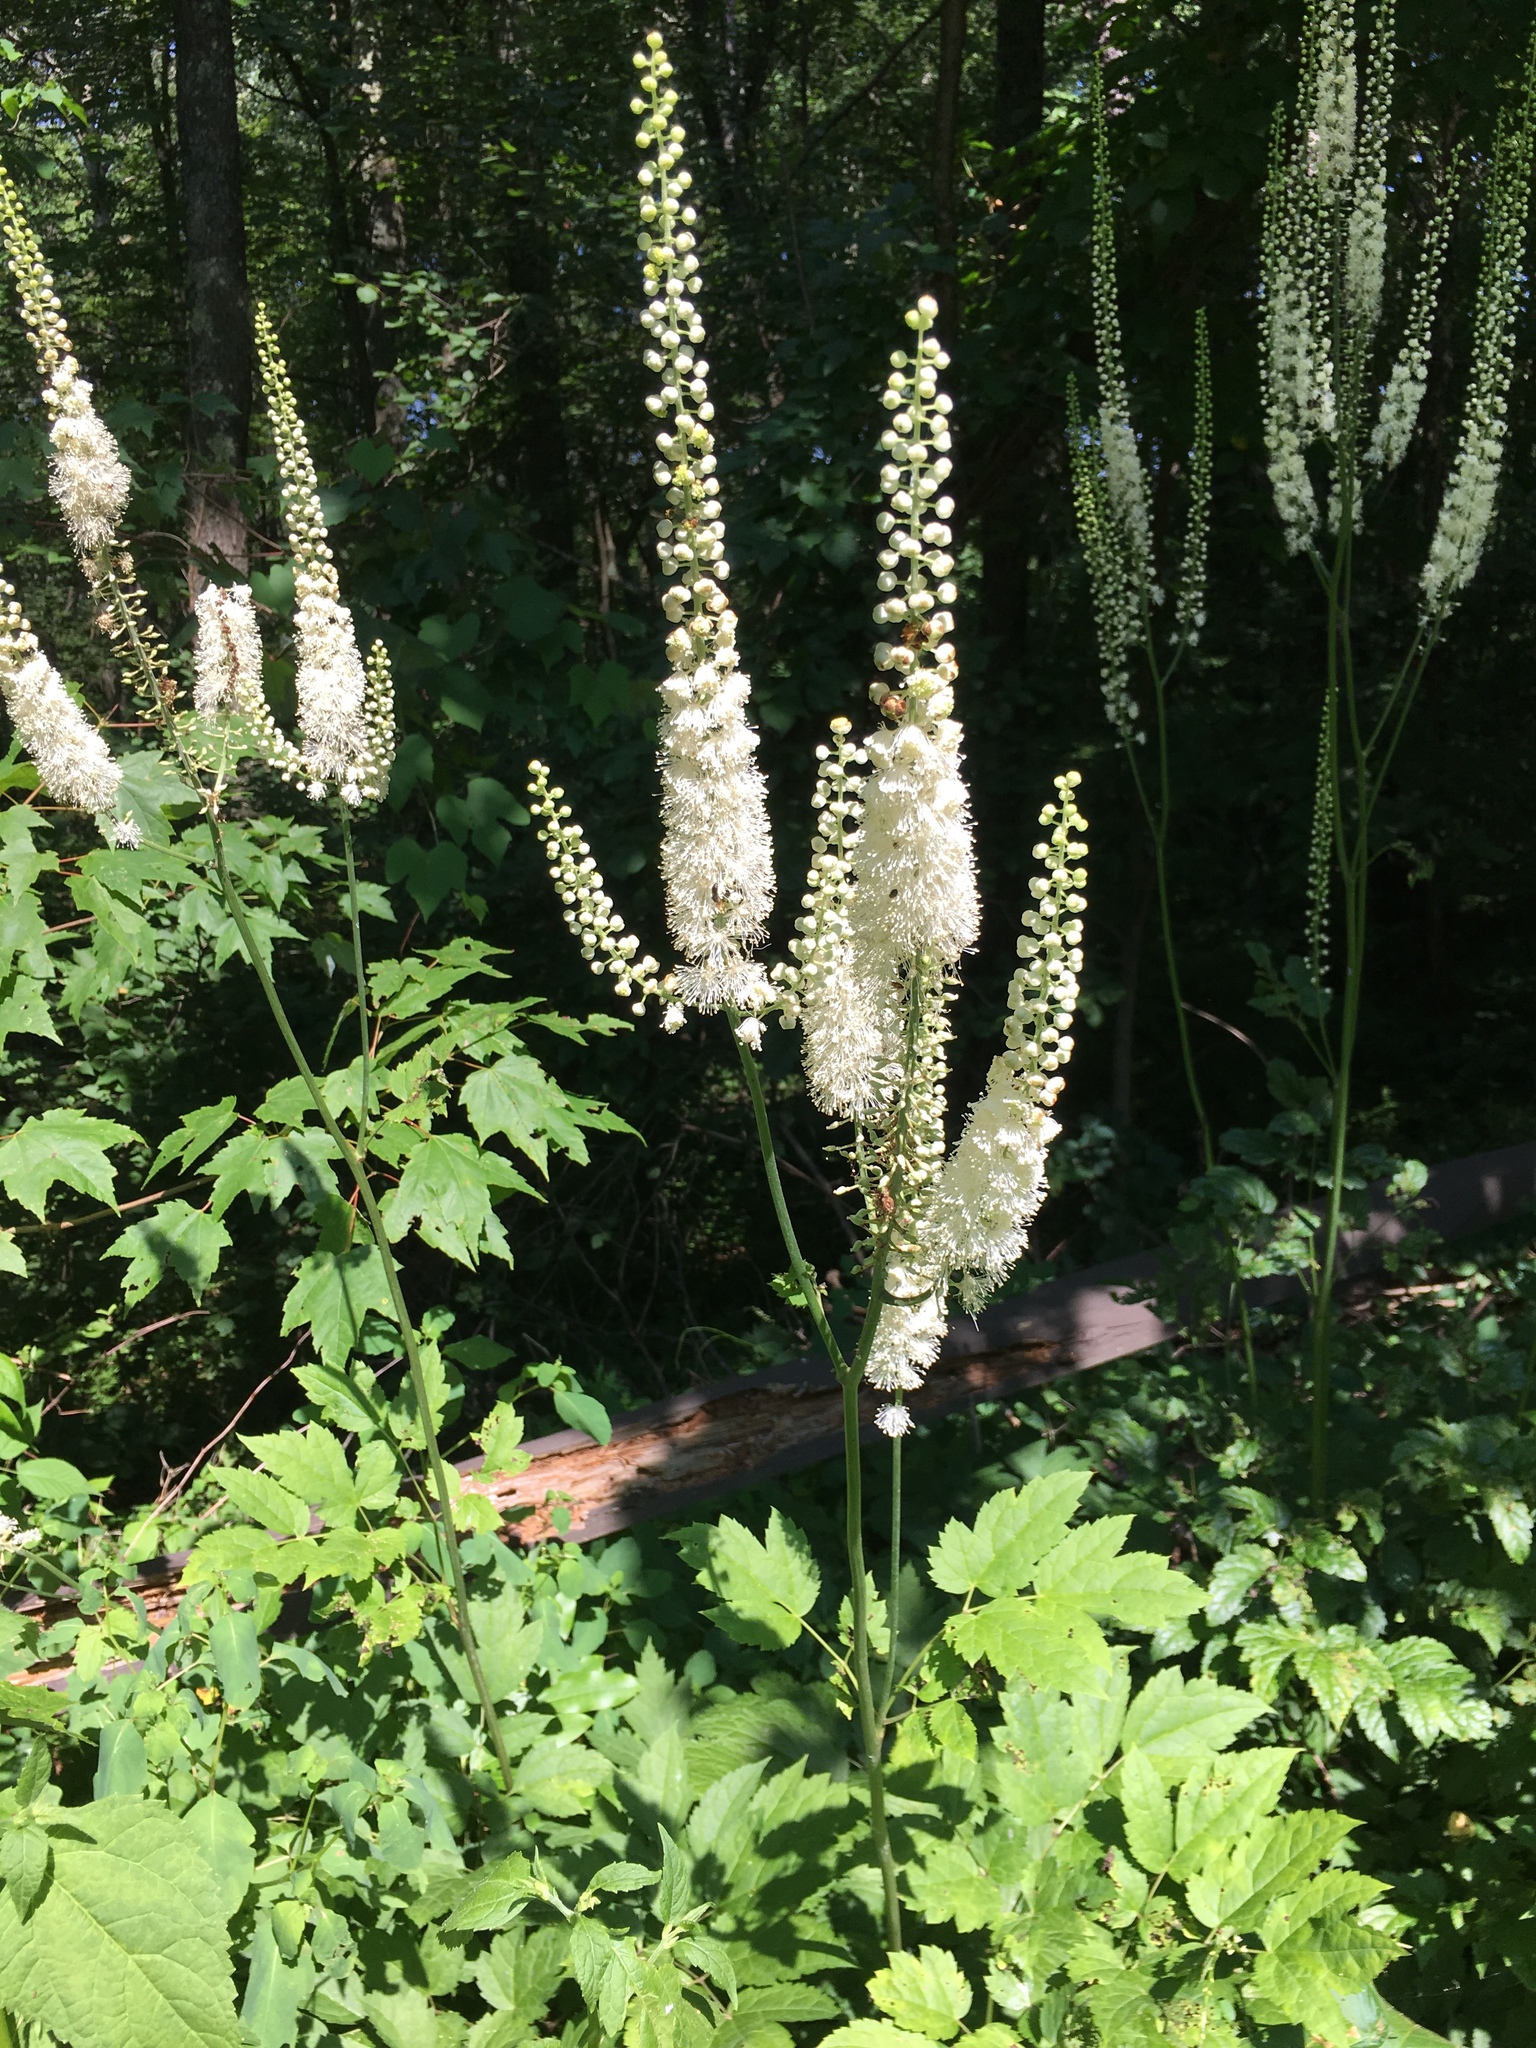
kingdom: Plantae
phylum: Tracheophyta
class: Magnoliopsida
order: Ranunculales
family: Ranunculaceae
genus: Actaea
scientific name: Actaea racemosa
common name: Black cohosh
